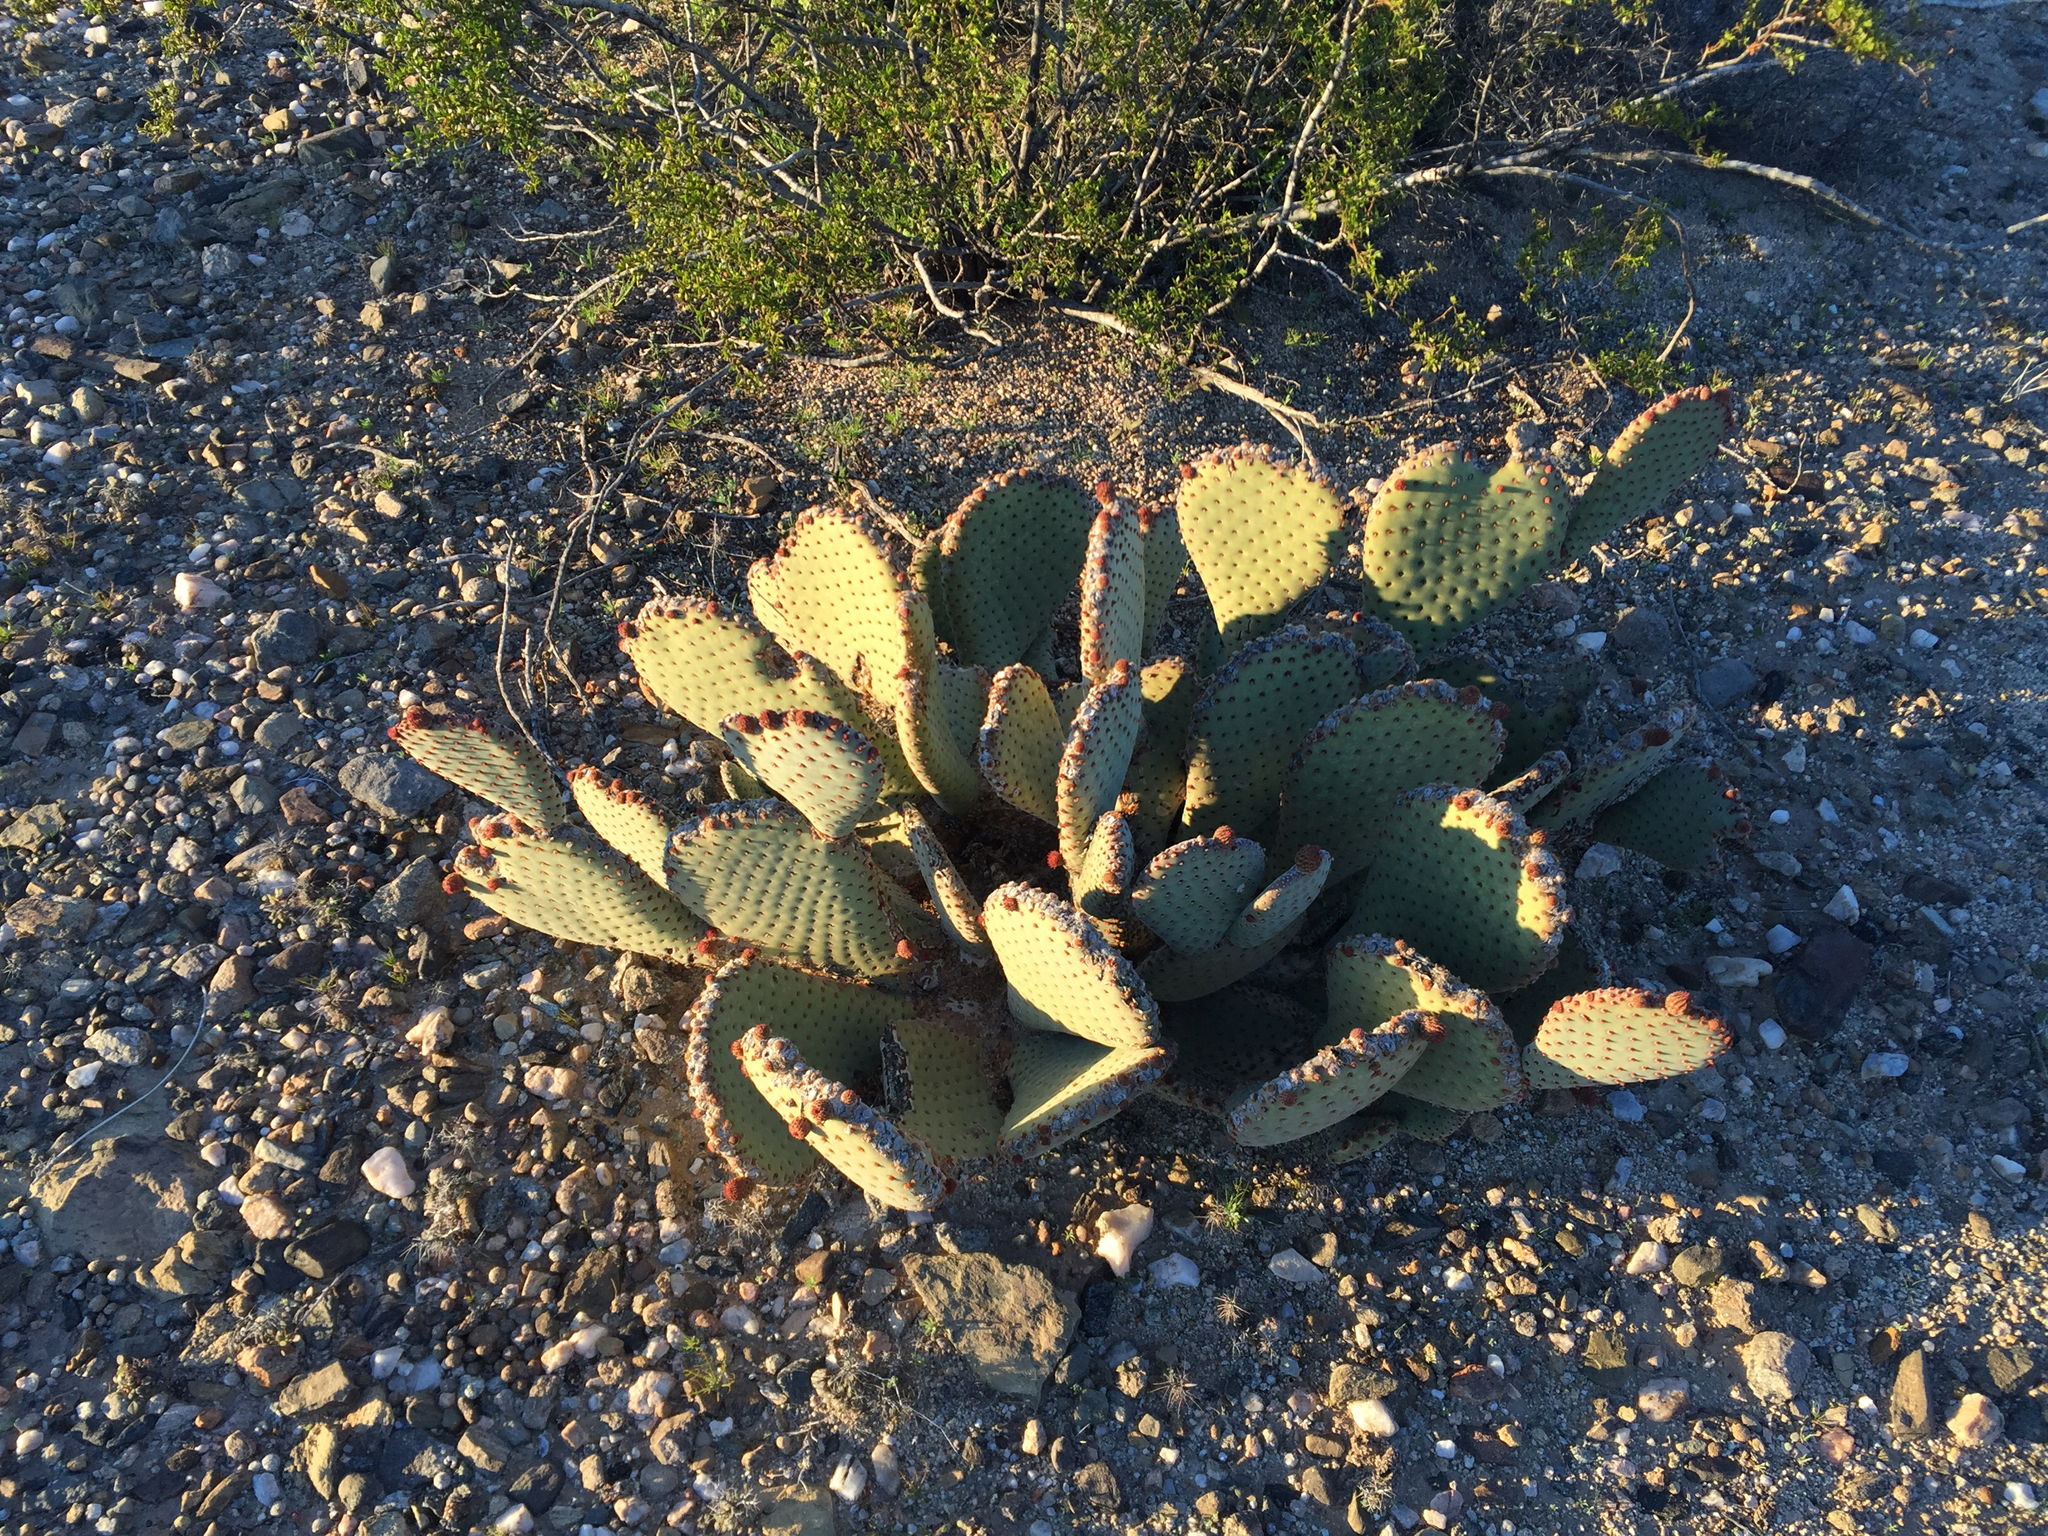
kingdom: Plantae
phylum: Tracheophyta
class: Magnoliopsida
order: Caryophyllales
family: Cactaceae
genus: Opuntia
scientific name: Opuntia basilaris
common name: Beavertail prickly-pear
